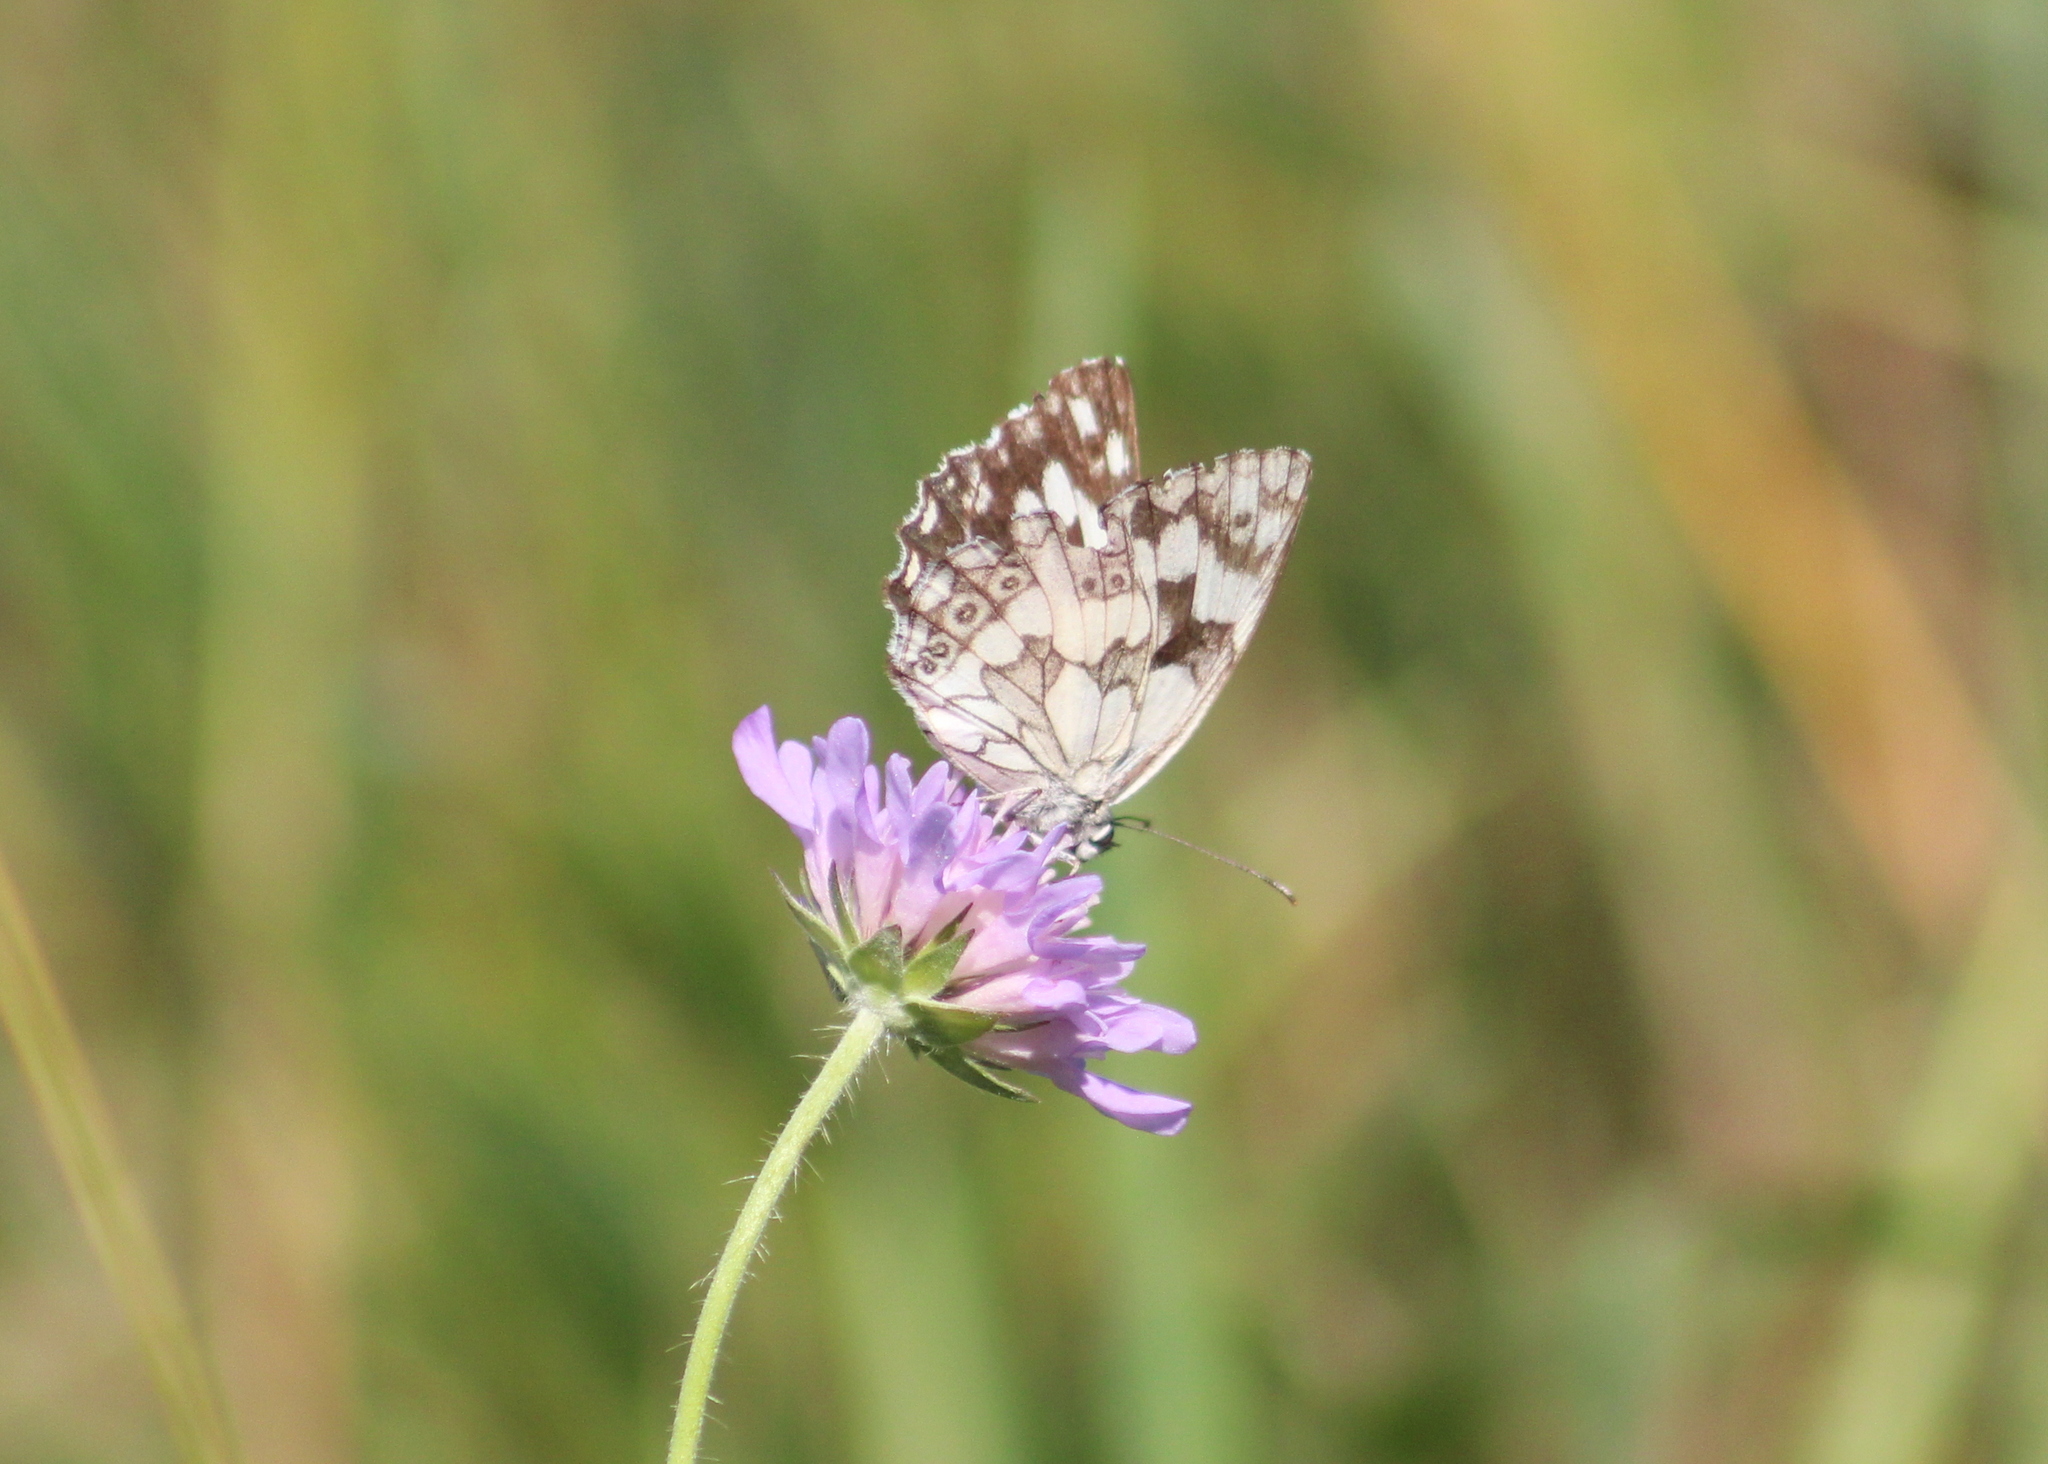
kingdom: Animalia
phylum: Arthropoda
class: Insecta
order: Lepidoptera
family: Nymphalidae
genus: Melanargia
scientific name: Melanargia galathea
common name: Marbled white
